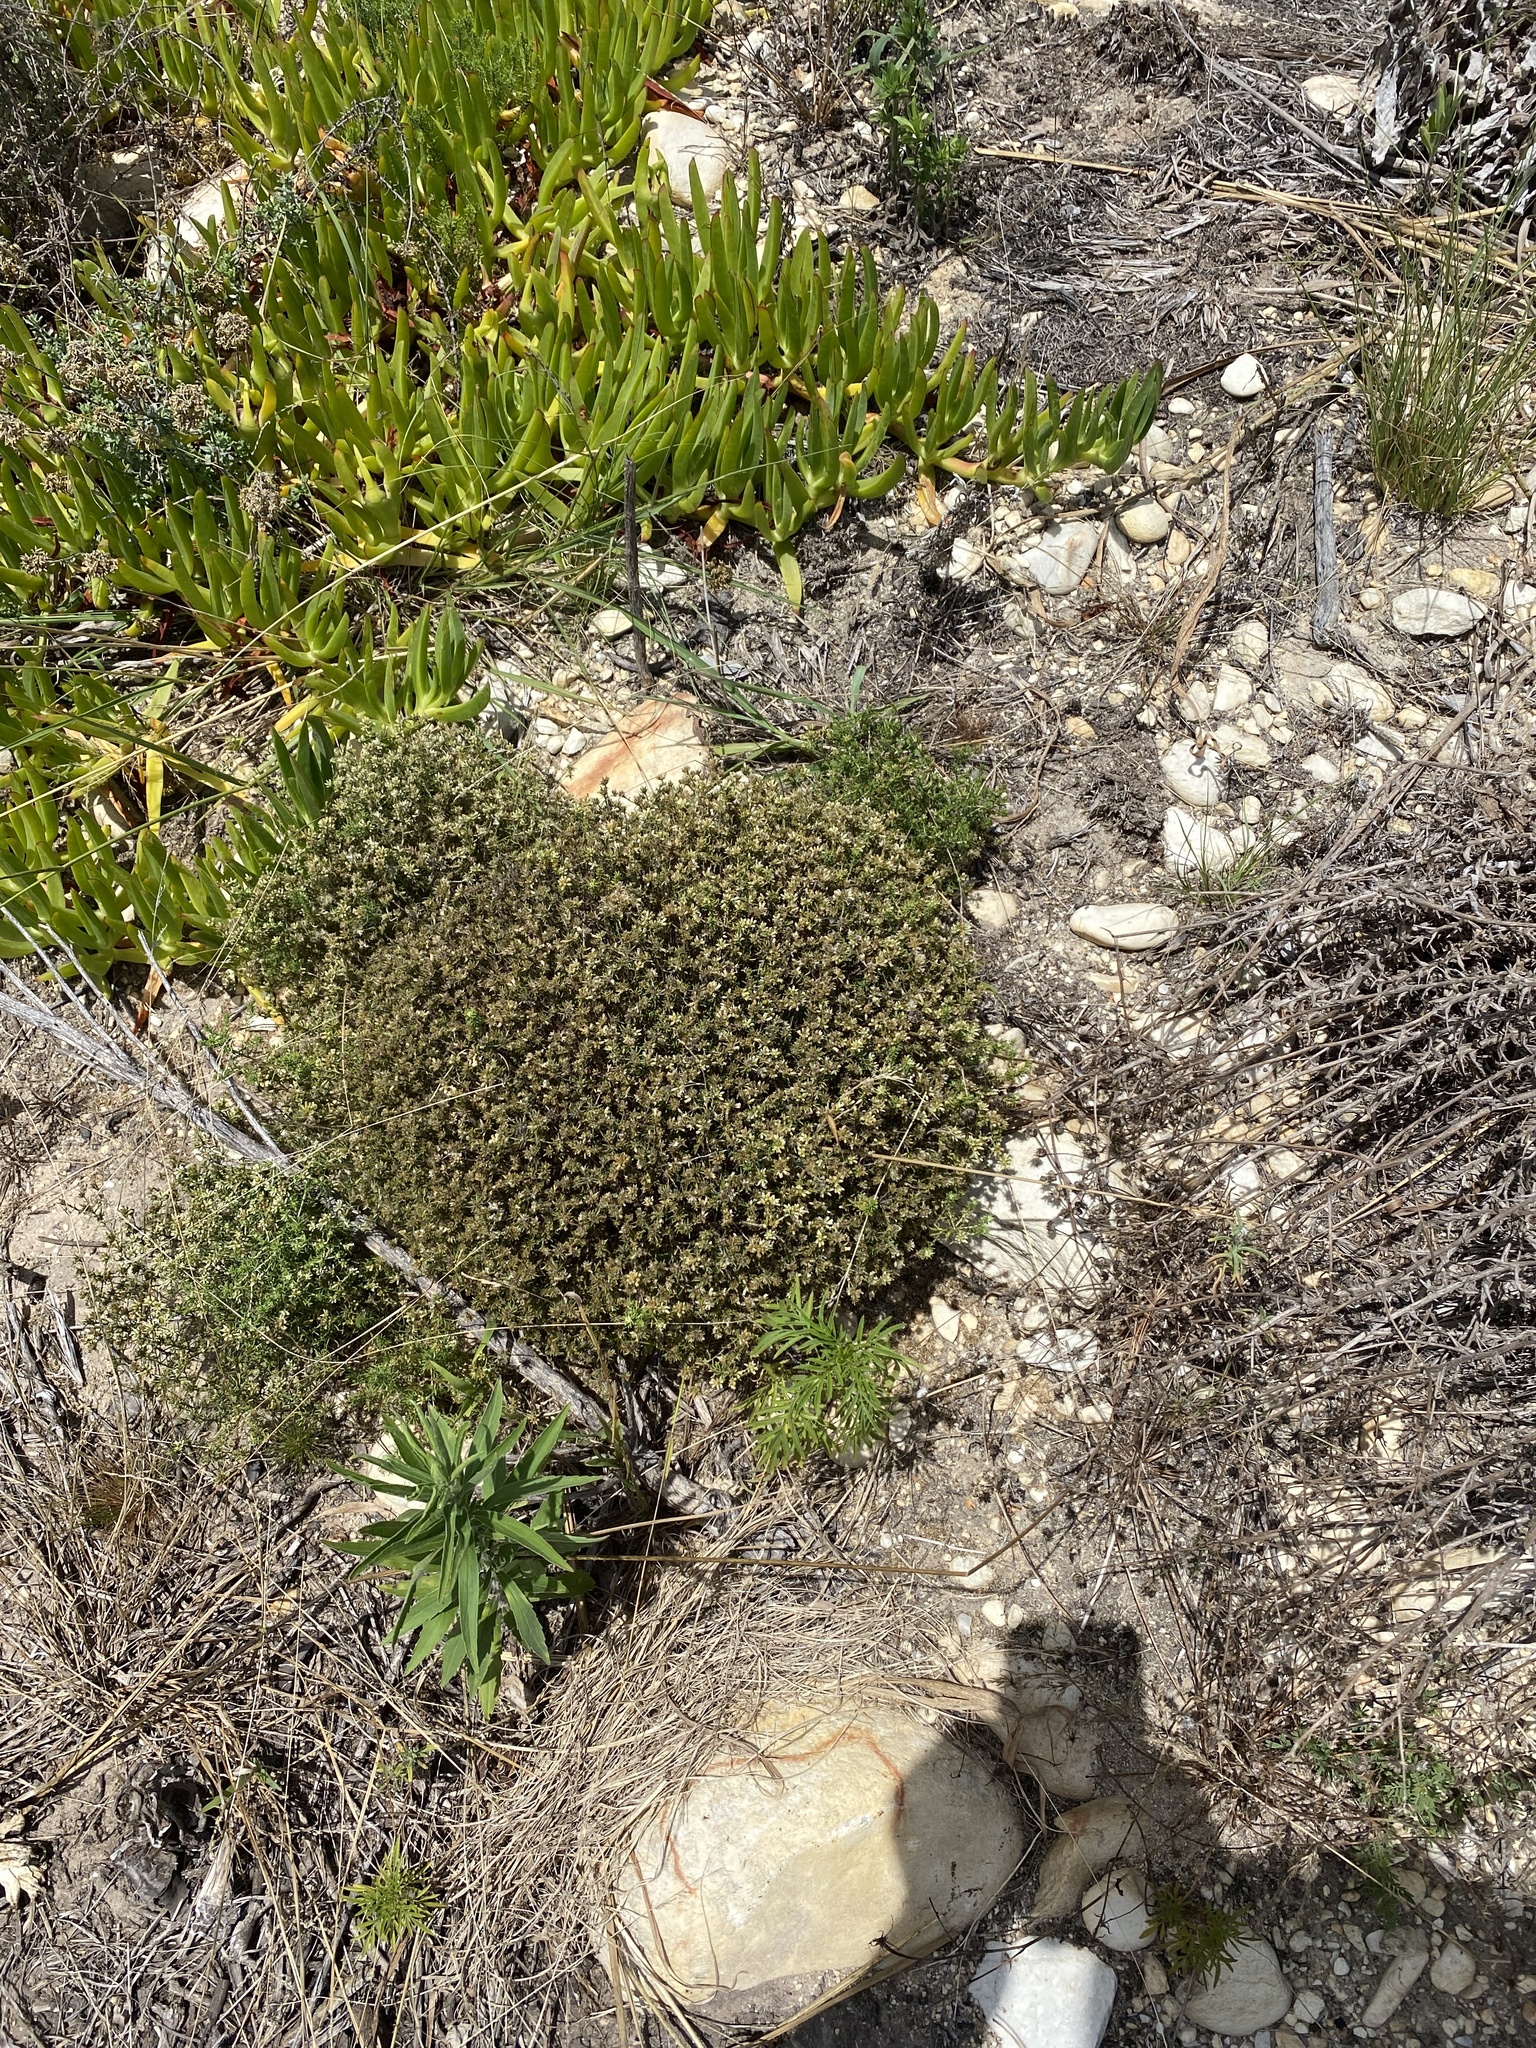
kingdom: Plantae
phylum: Tracheophyta
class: Magnoliopsida
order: Asterales
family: Asteraceae
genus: Helichrysum
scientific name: Helichrysum asperum
